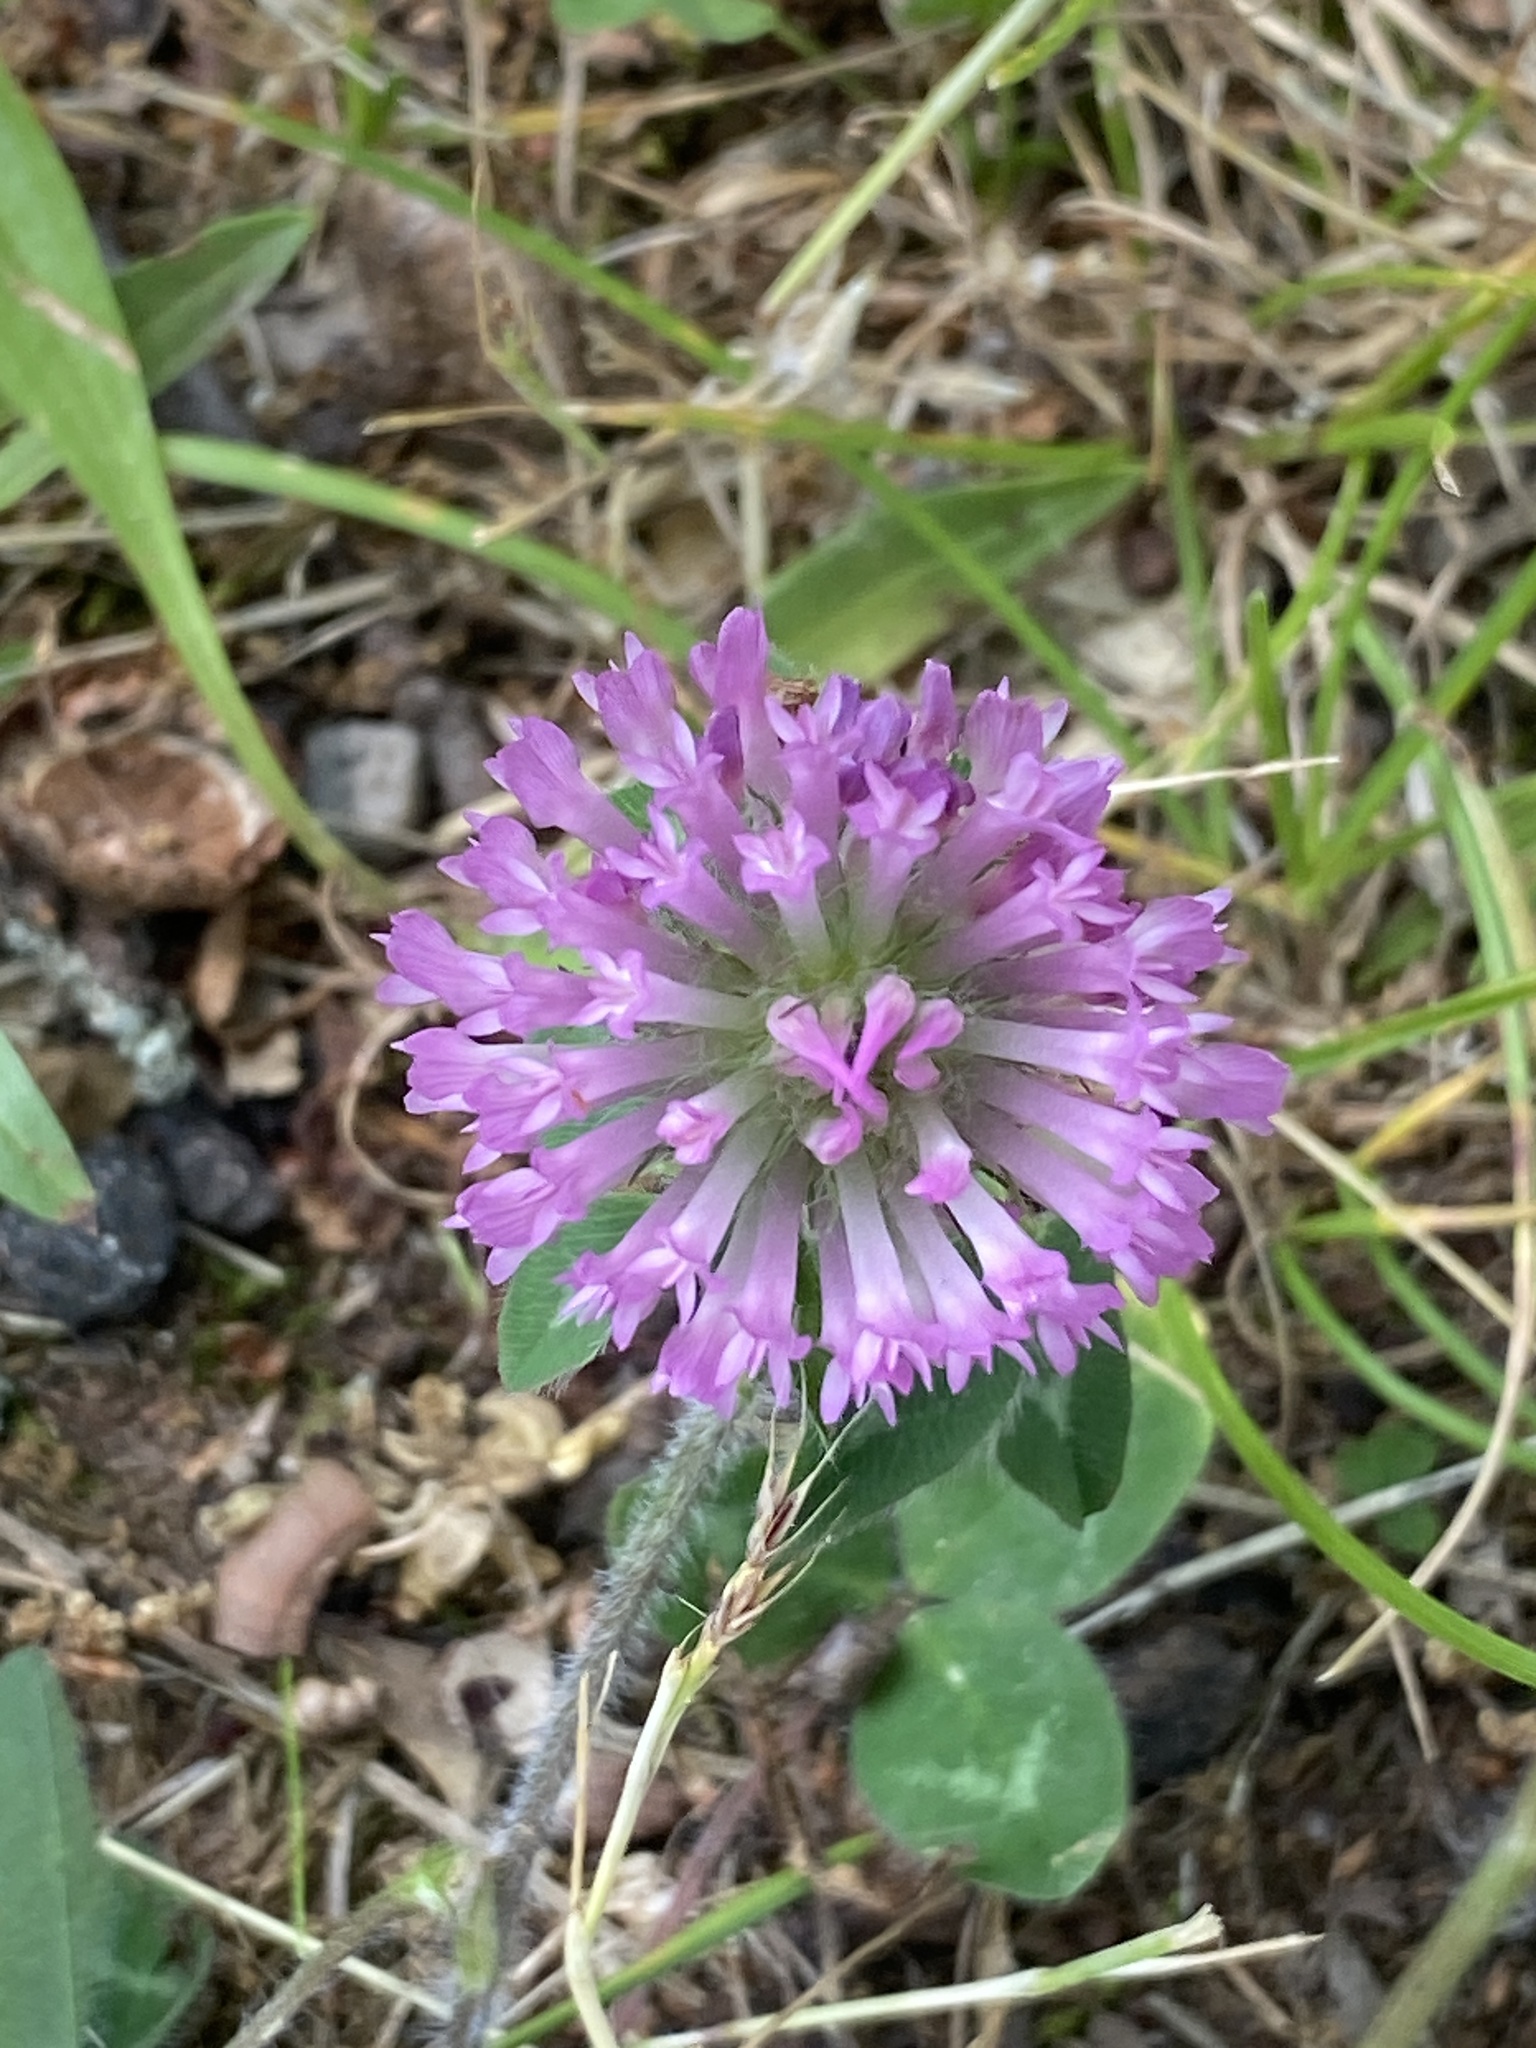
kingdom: Plantae
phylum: Tracheophyta
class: Magnoliopsida
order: Fabales
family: Fabaceae
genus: Trifolium
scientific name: Trifolium pratense
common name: Red clover
